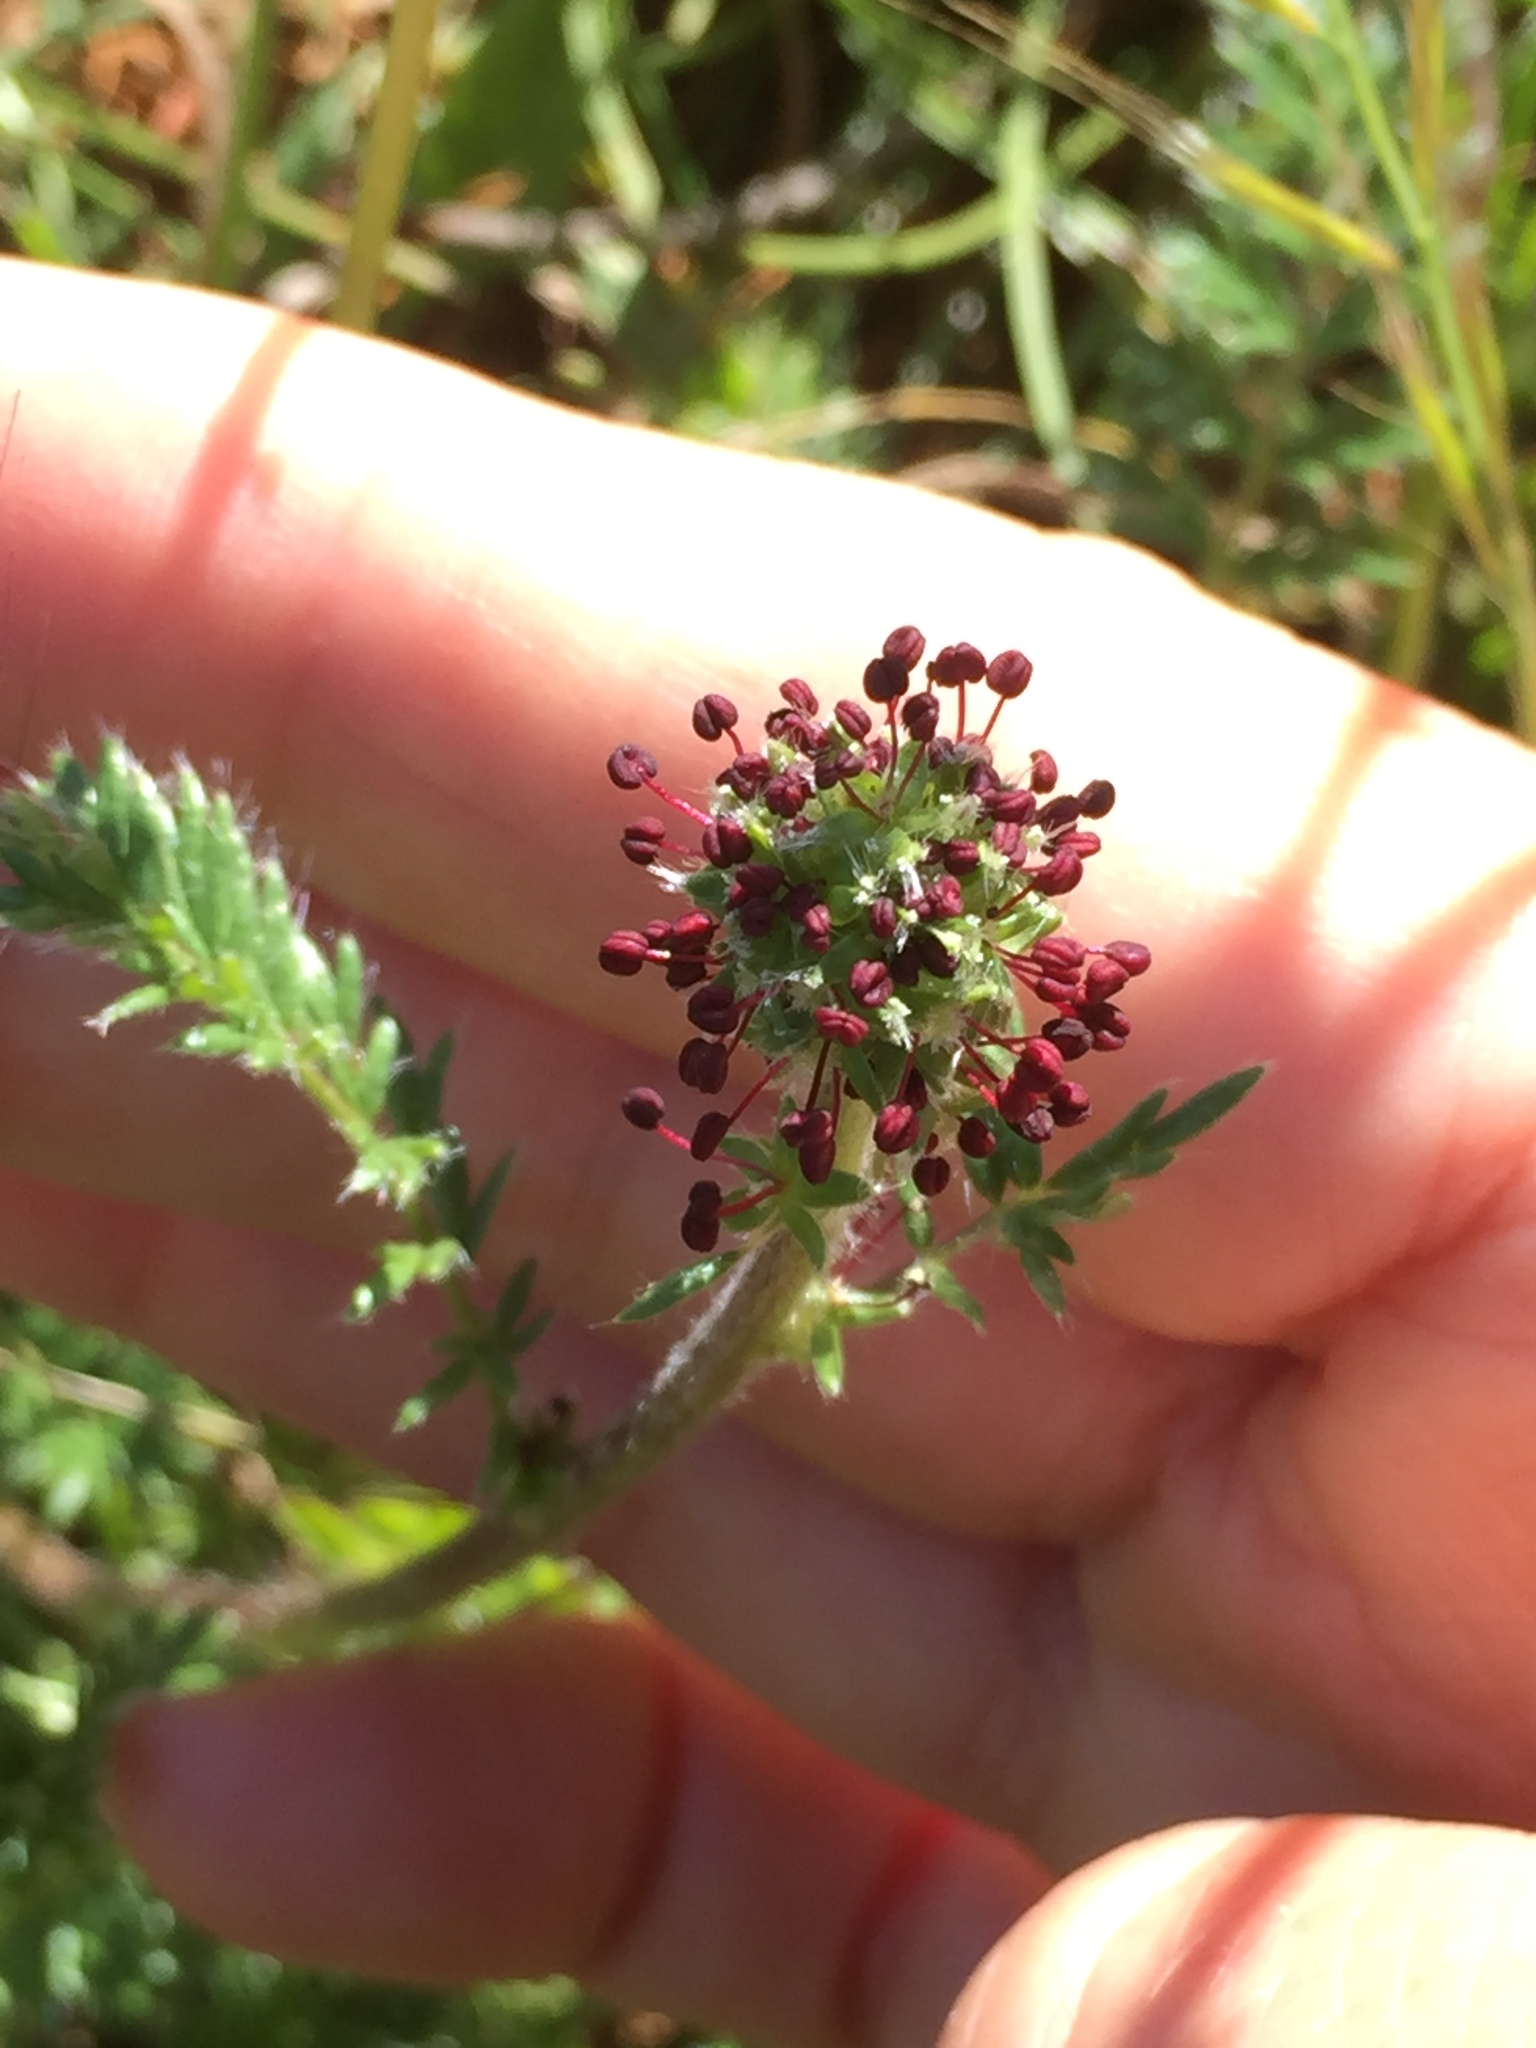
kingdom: Plantae
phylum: Tracheophyta
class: Magnoliopsida
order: Rosales
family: Rosaceae
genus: Acaena
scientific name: Acaena pinnatifida
